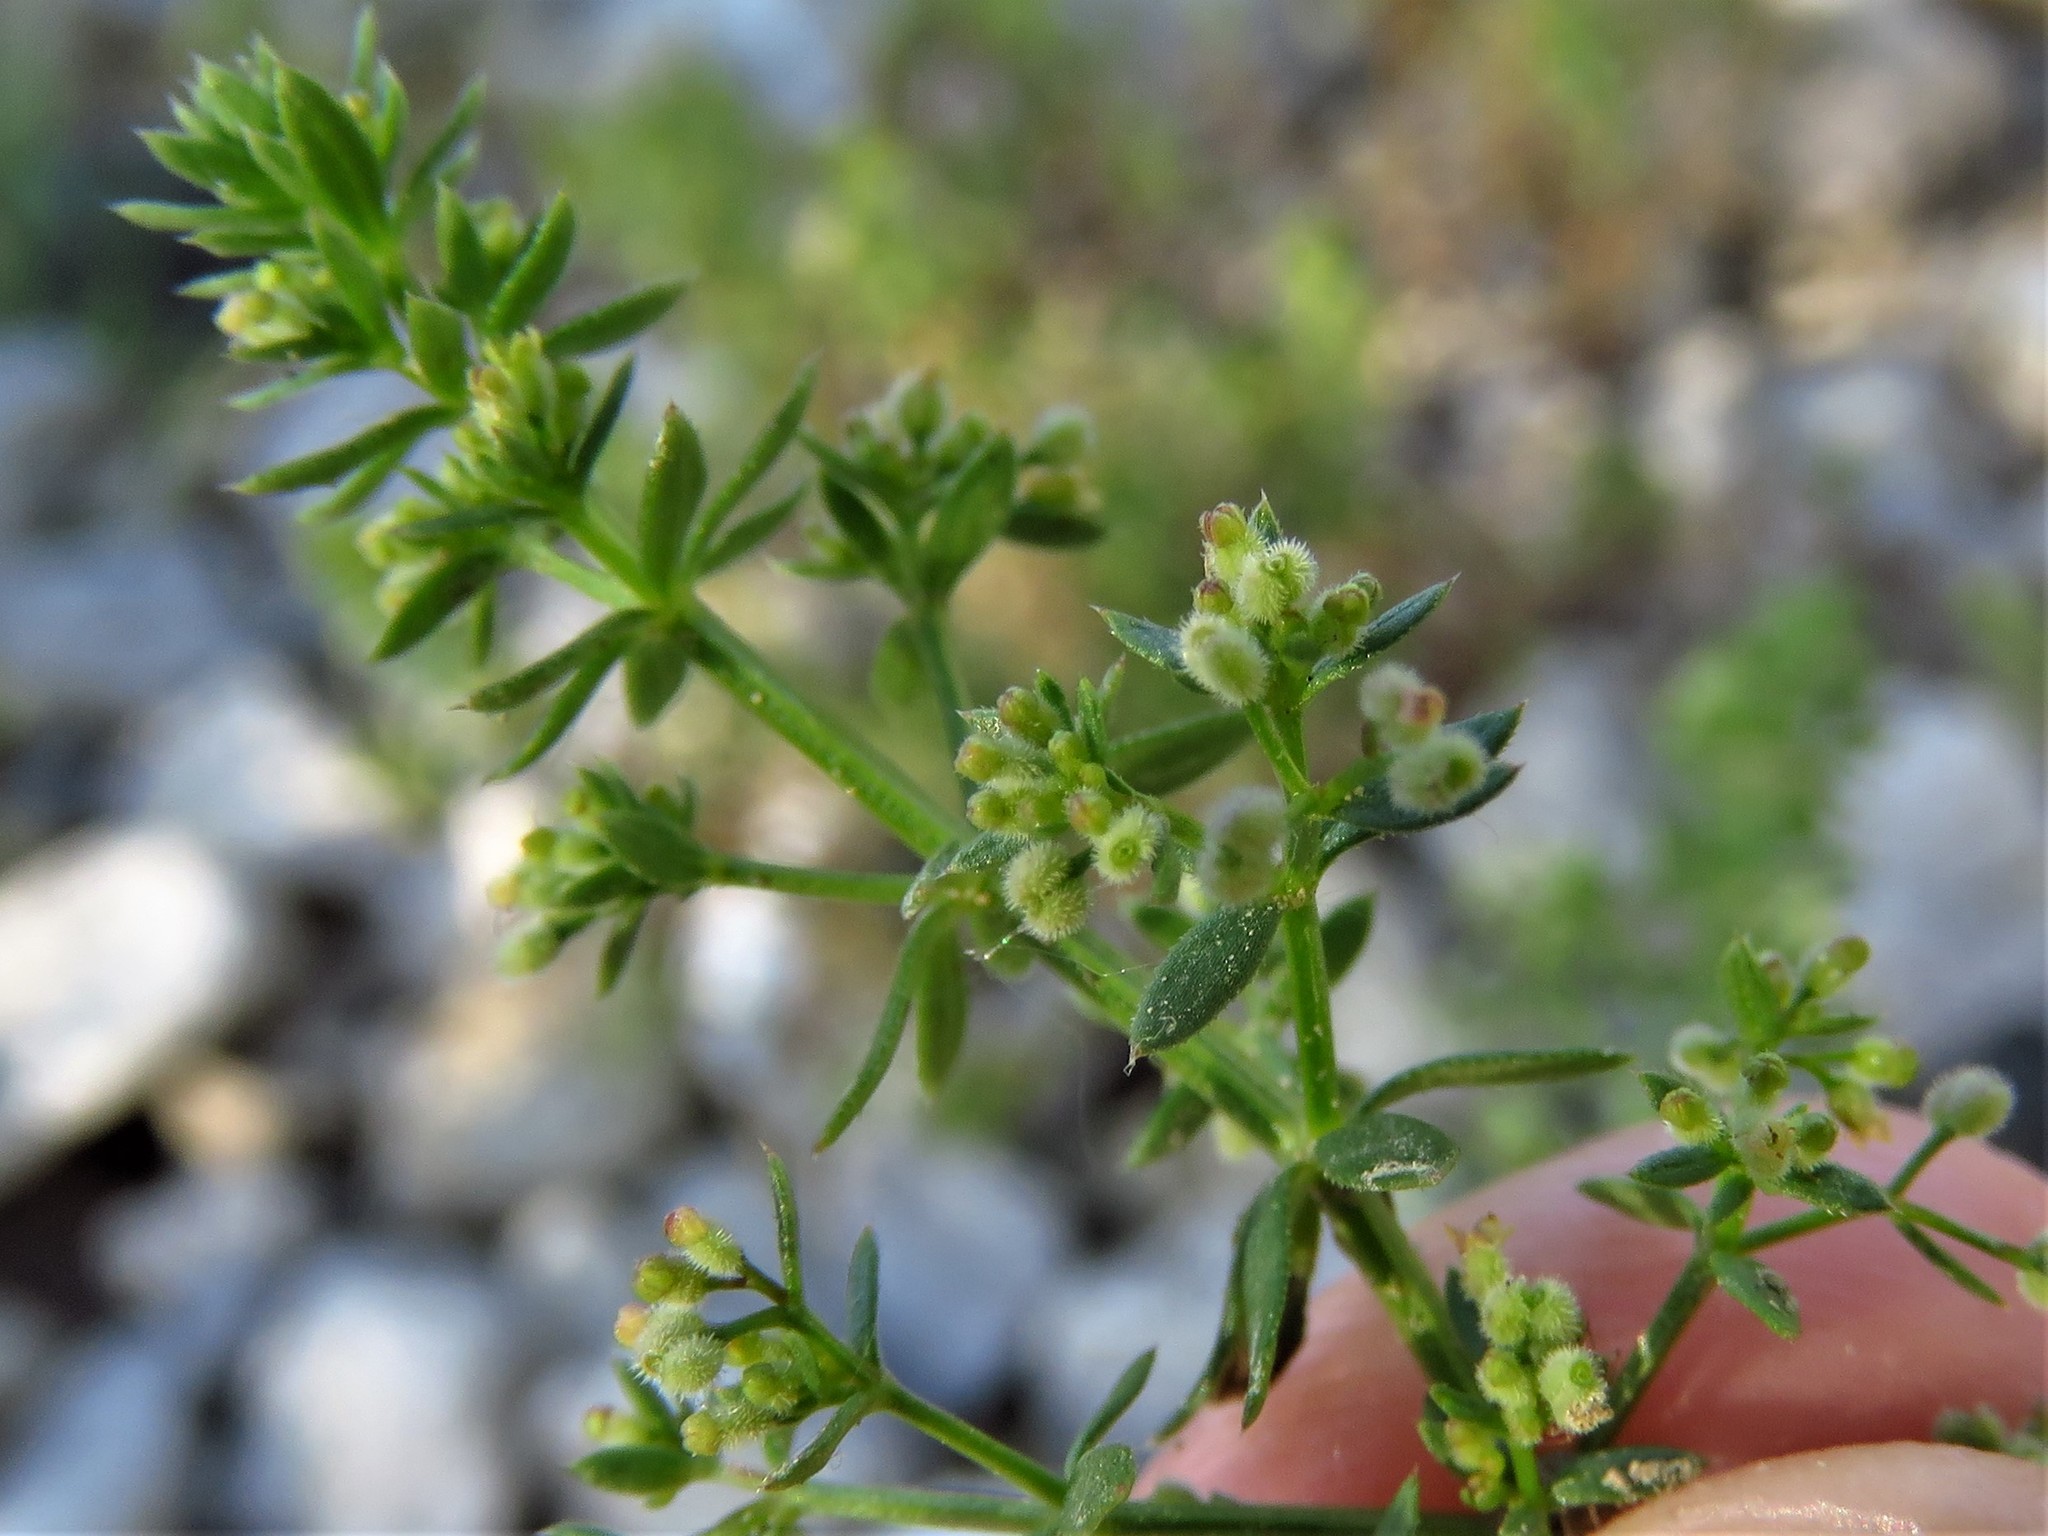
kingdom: Plantae
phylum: Tracheophyta
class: Magnoliopsida
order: Gentianales
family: Rubiaceae
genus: Galium
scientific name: Galium aparine
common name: Cleavers
